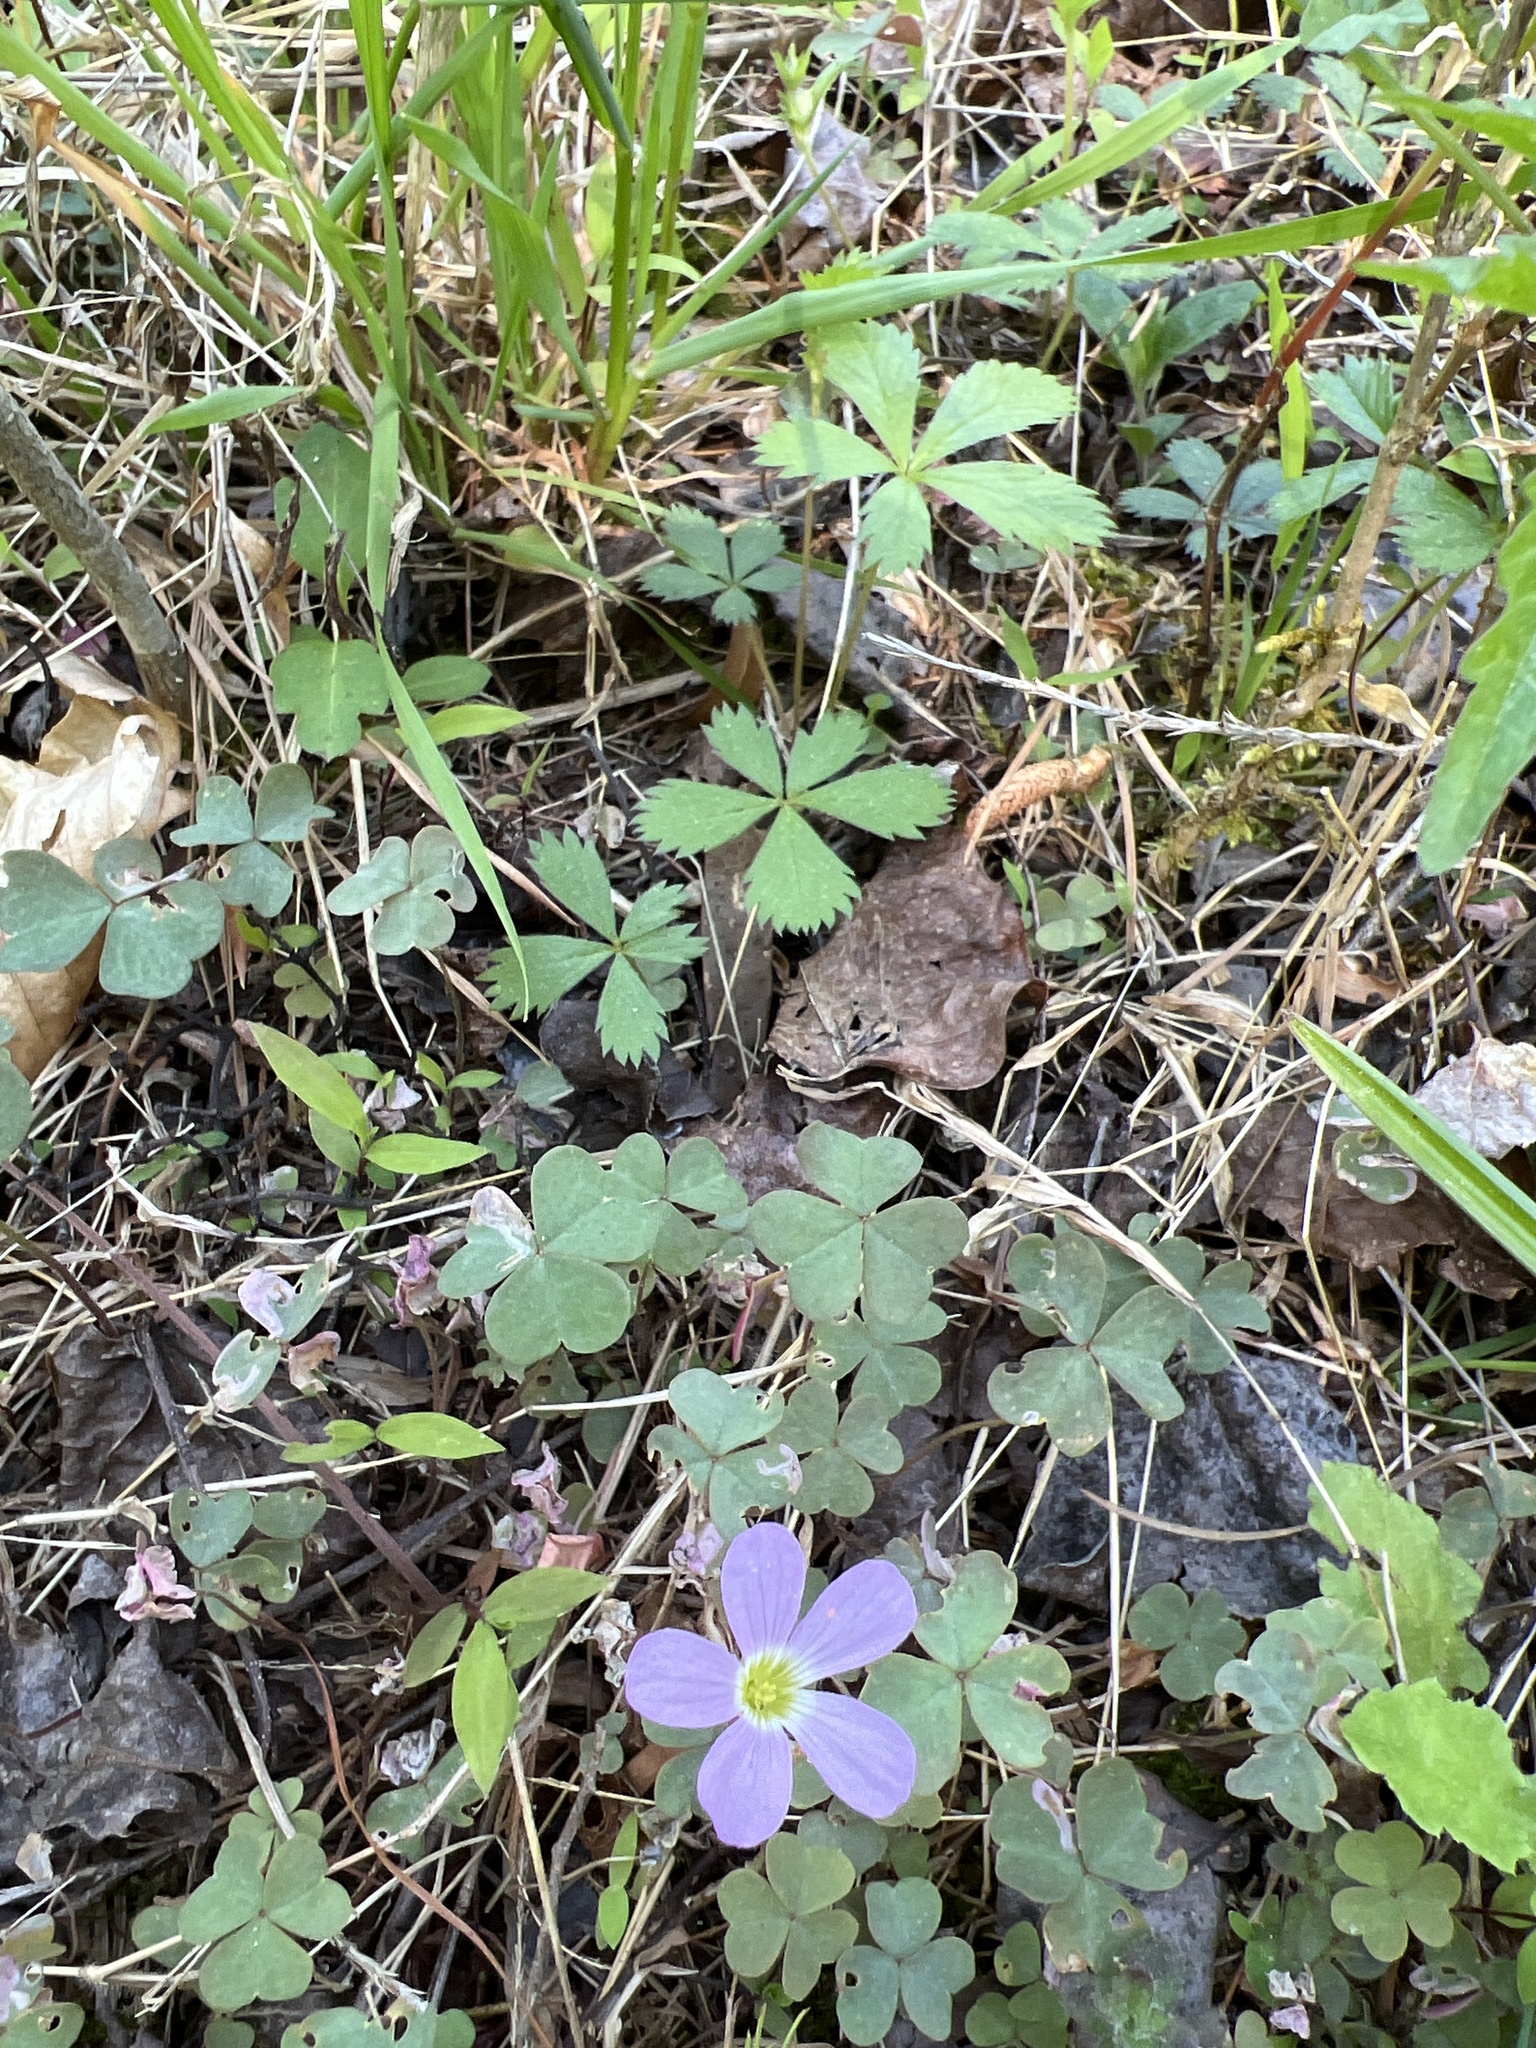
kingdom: Plantae
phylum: Tracheophyta
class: Magnoliopsida
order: Oxalidales
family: Oxalidaceae
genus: Oxalis
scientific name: Oxalis violacea
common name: Violet wood-sorrel
